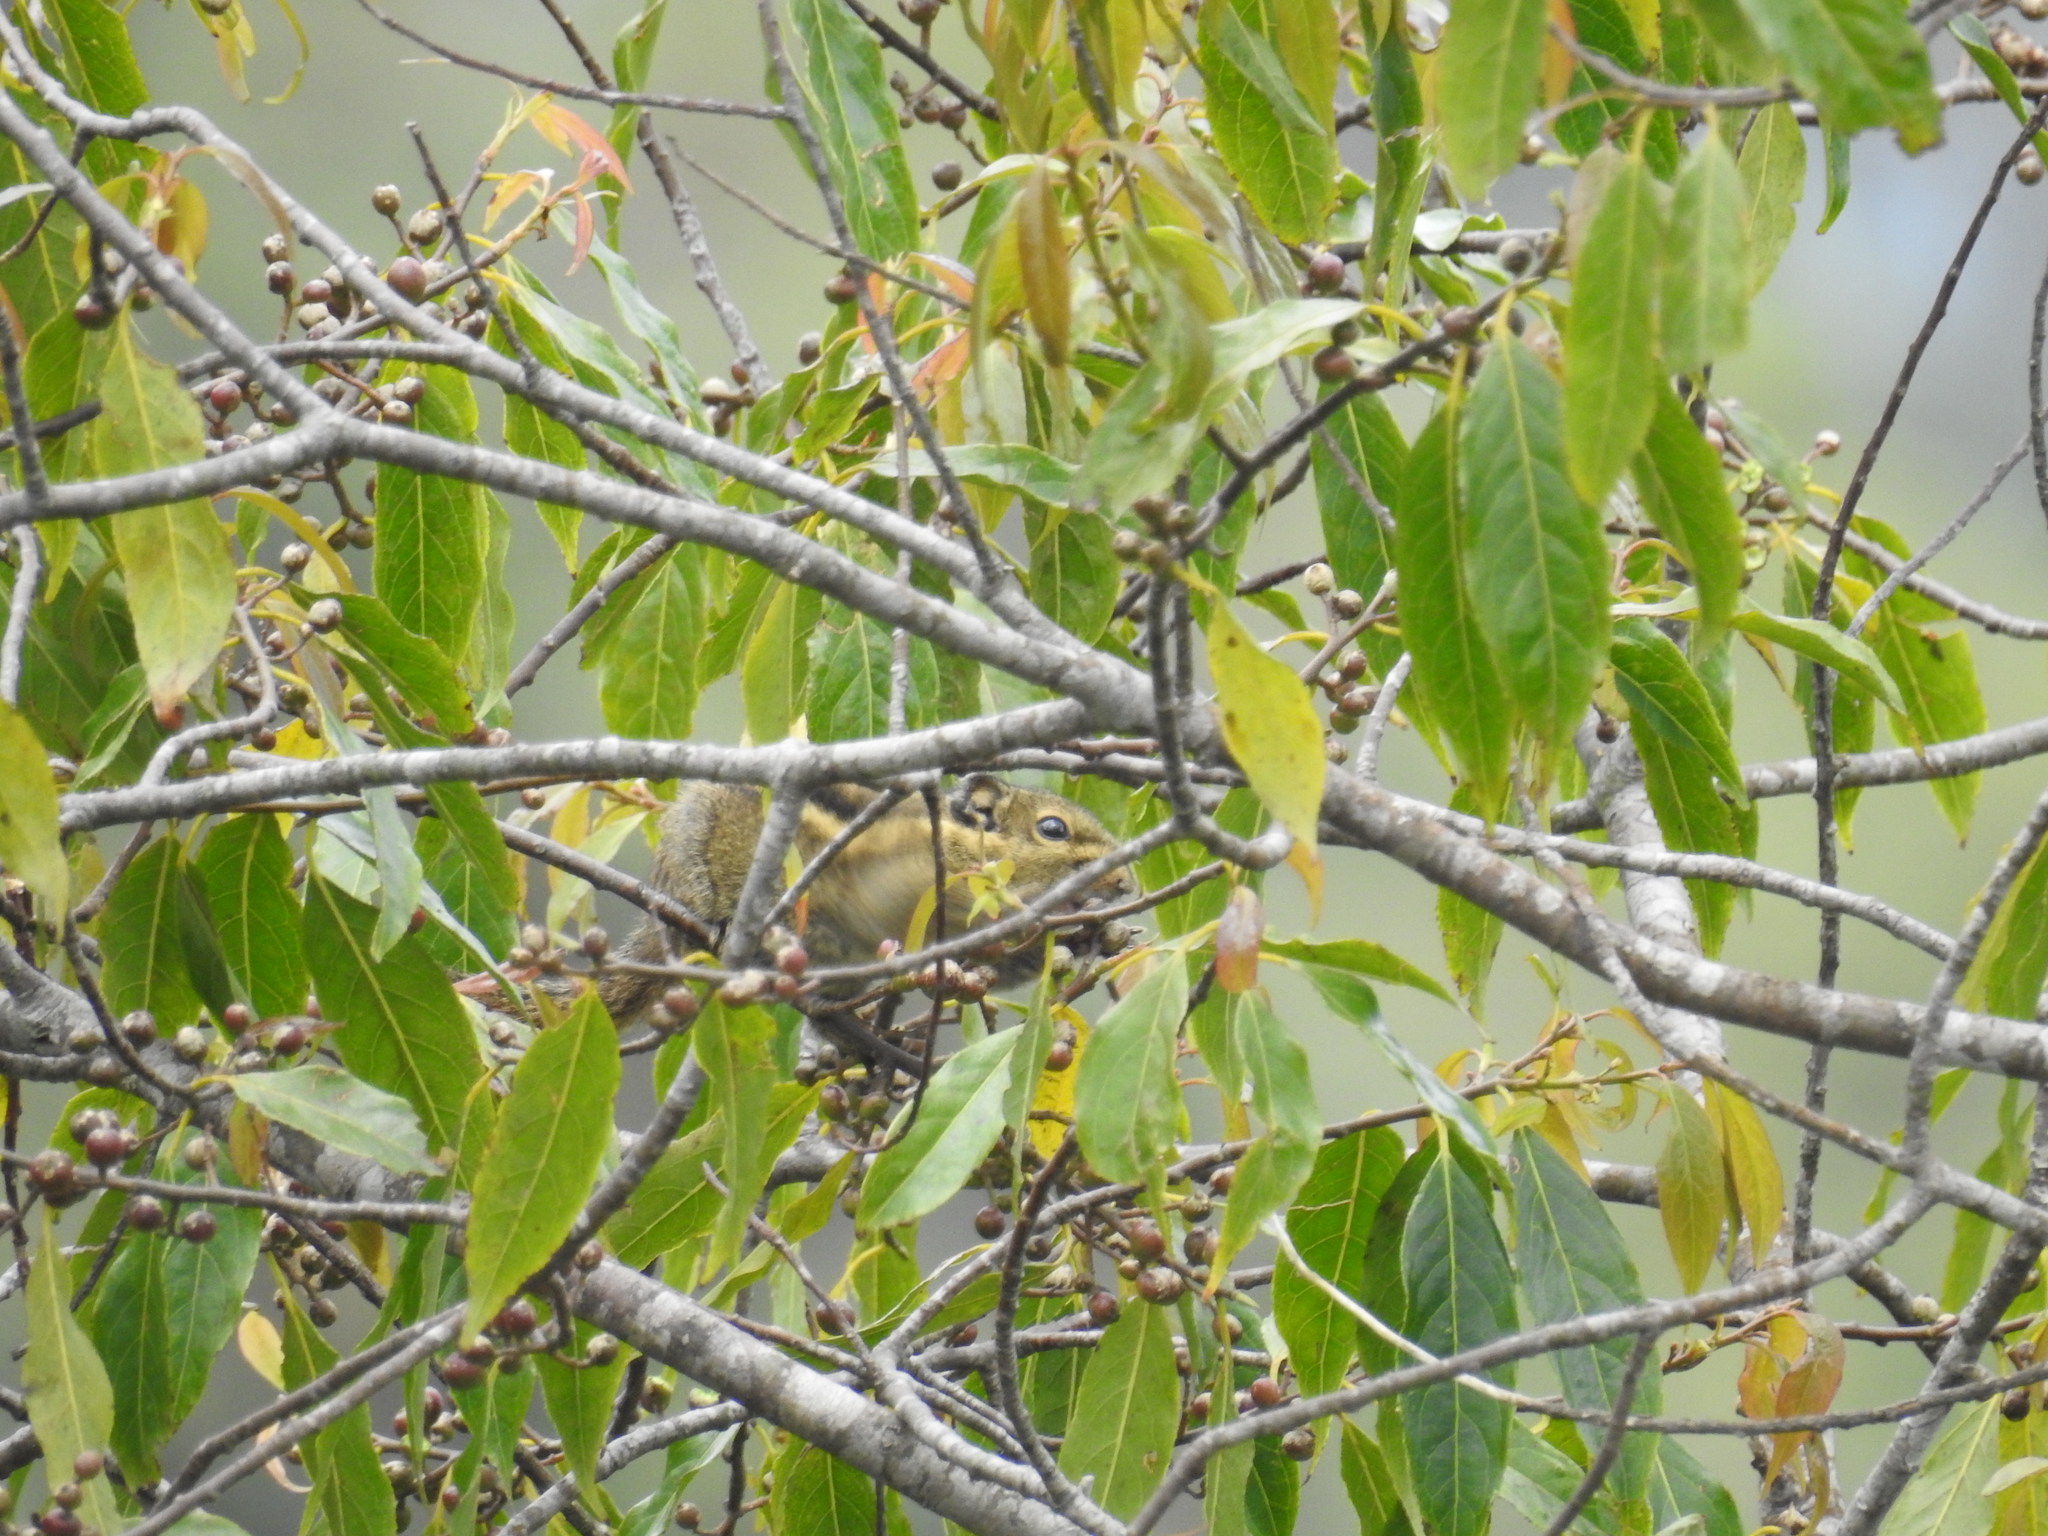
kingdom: Animalia
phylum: Chordata
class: Mammalia
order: Rodentia
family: Sciuridae
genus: Tamiops
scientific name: Tamiops mcclellandii
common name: Himalayan striped squirrel
